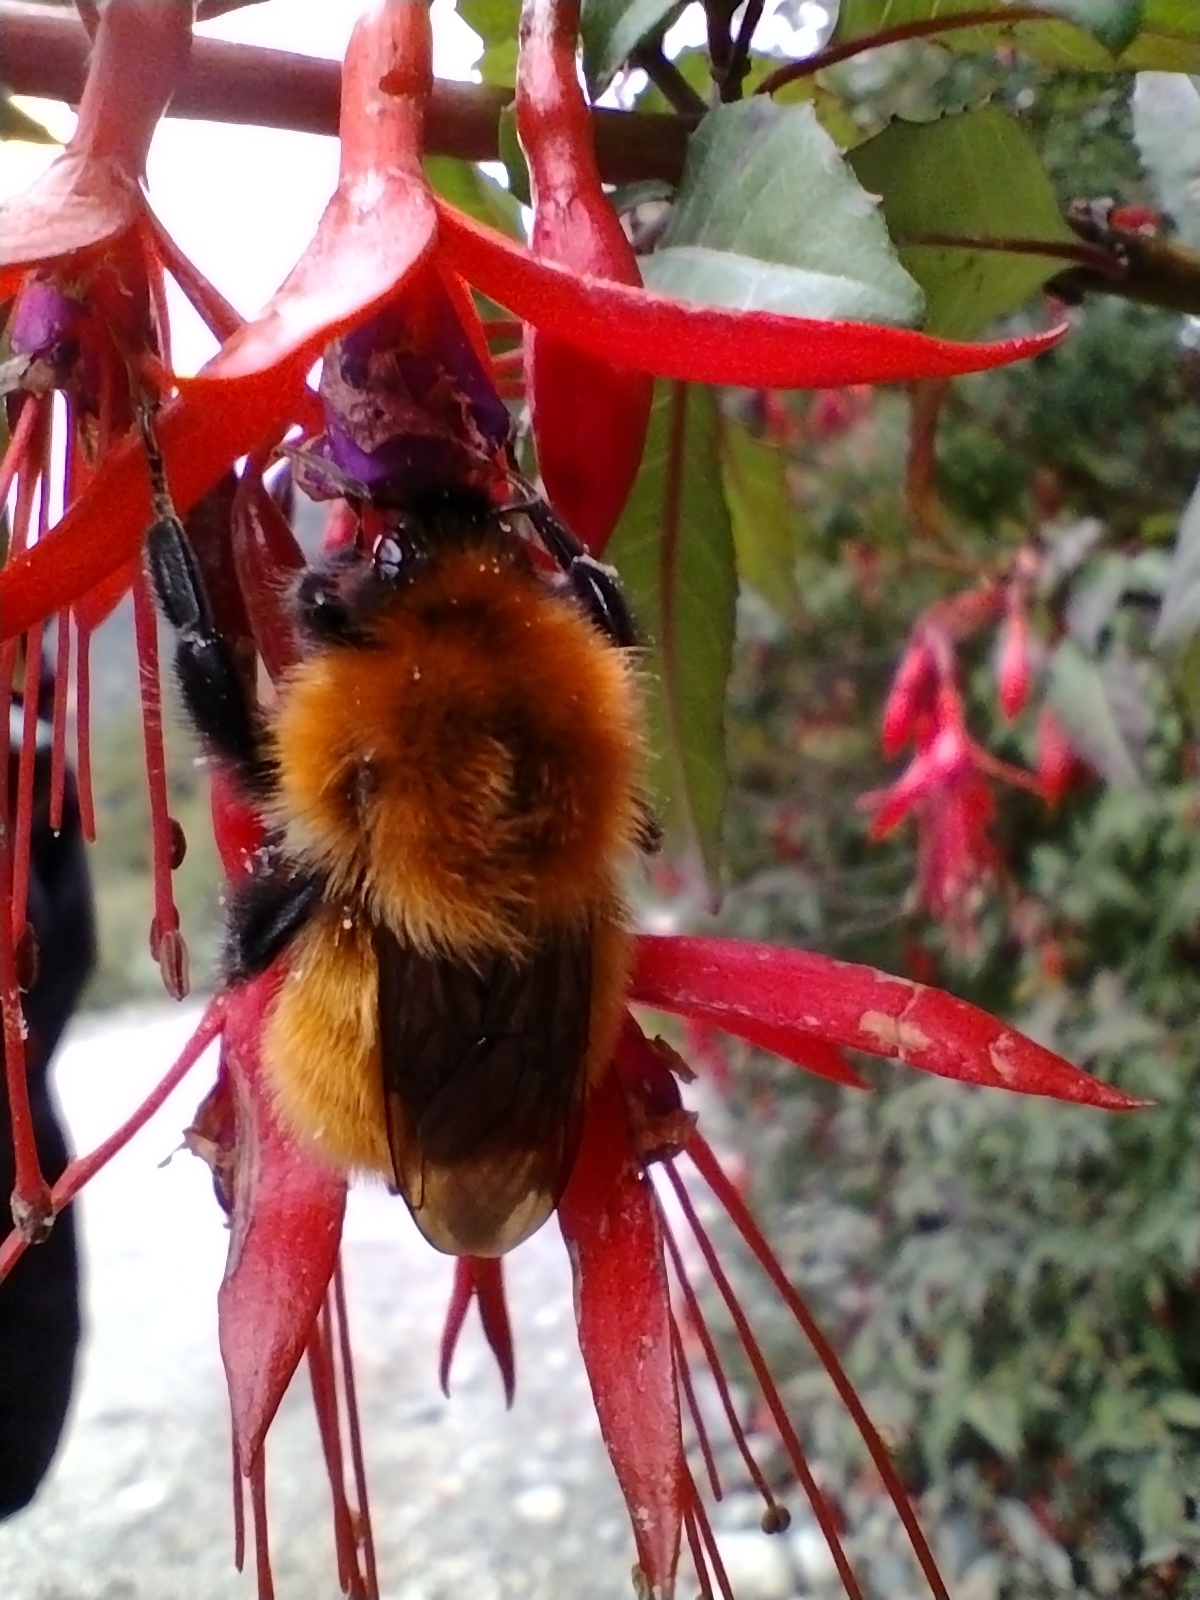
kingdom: Animalia
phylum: Arthropoda
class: Insecta
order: Hymenoptera
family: Apidae
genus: Bombus
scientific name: Bombus dahlbomii
